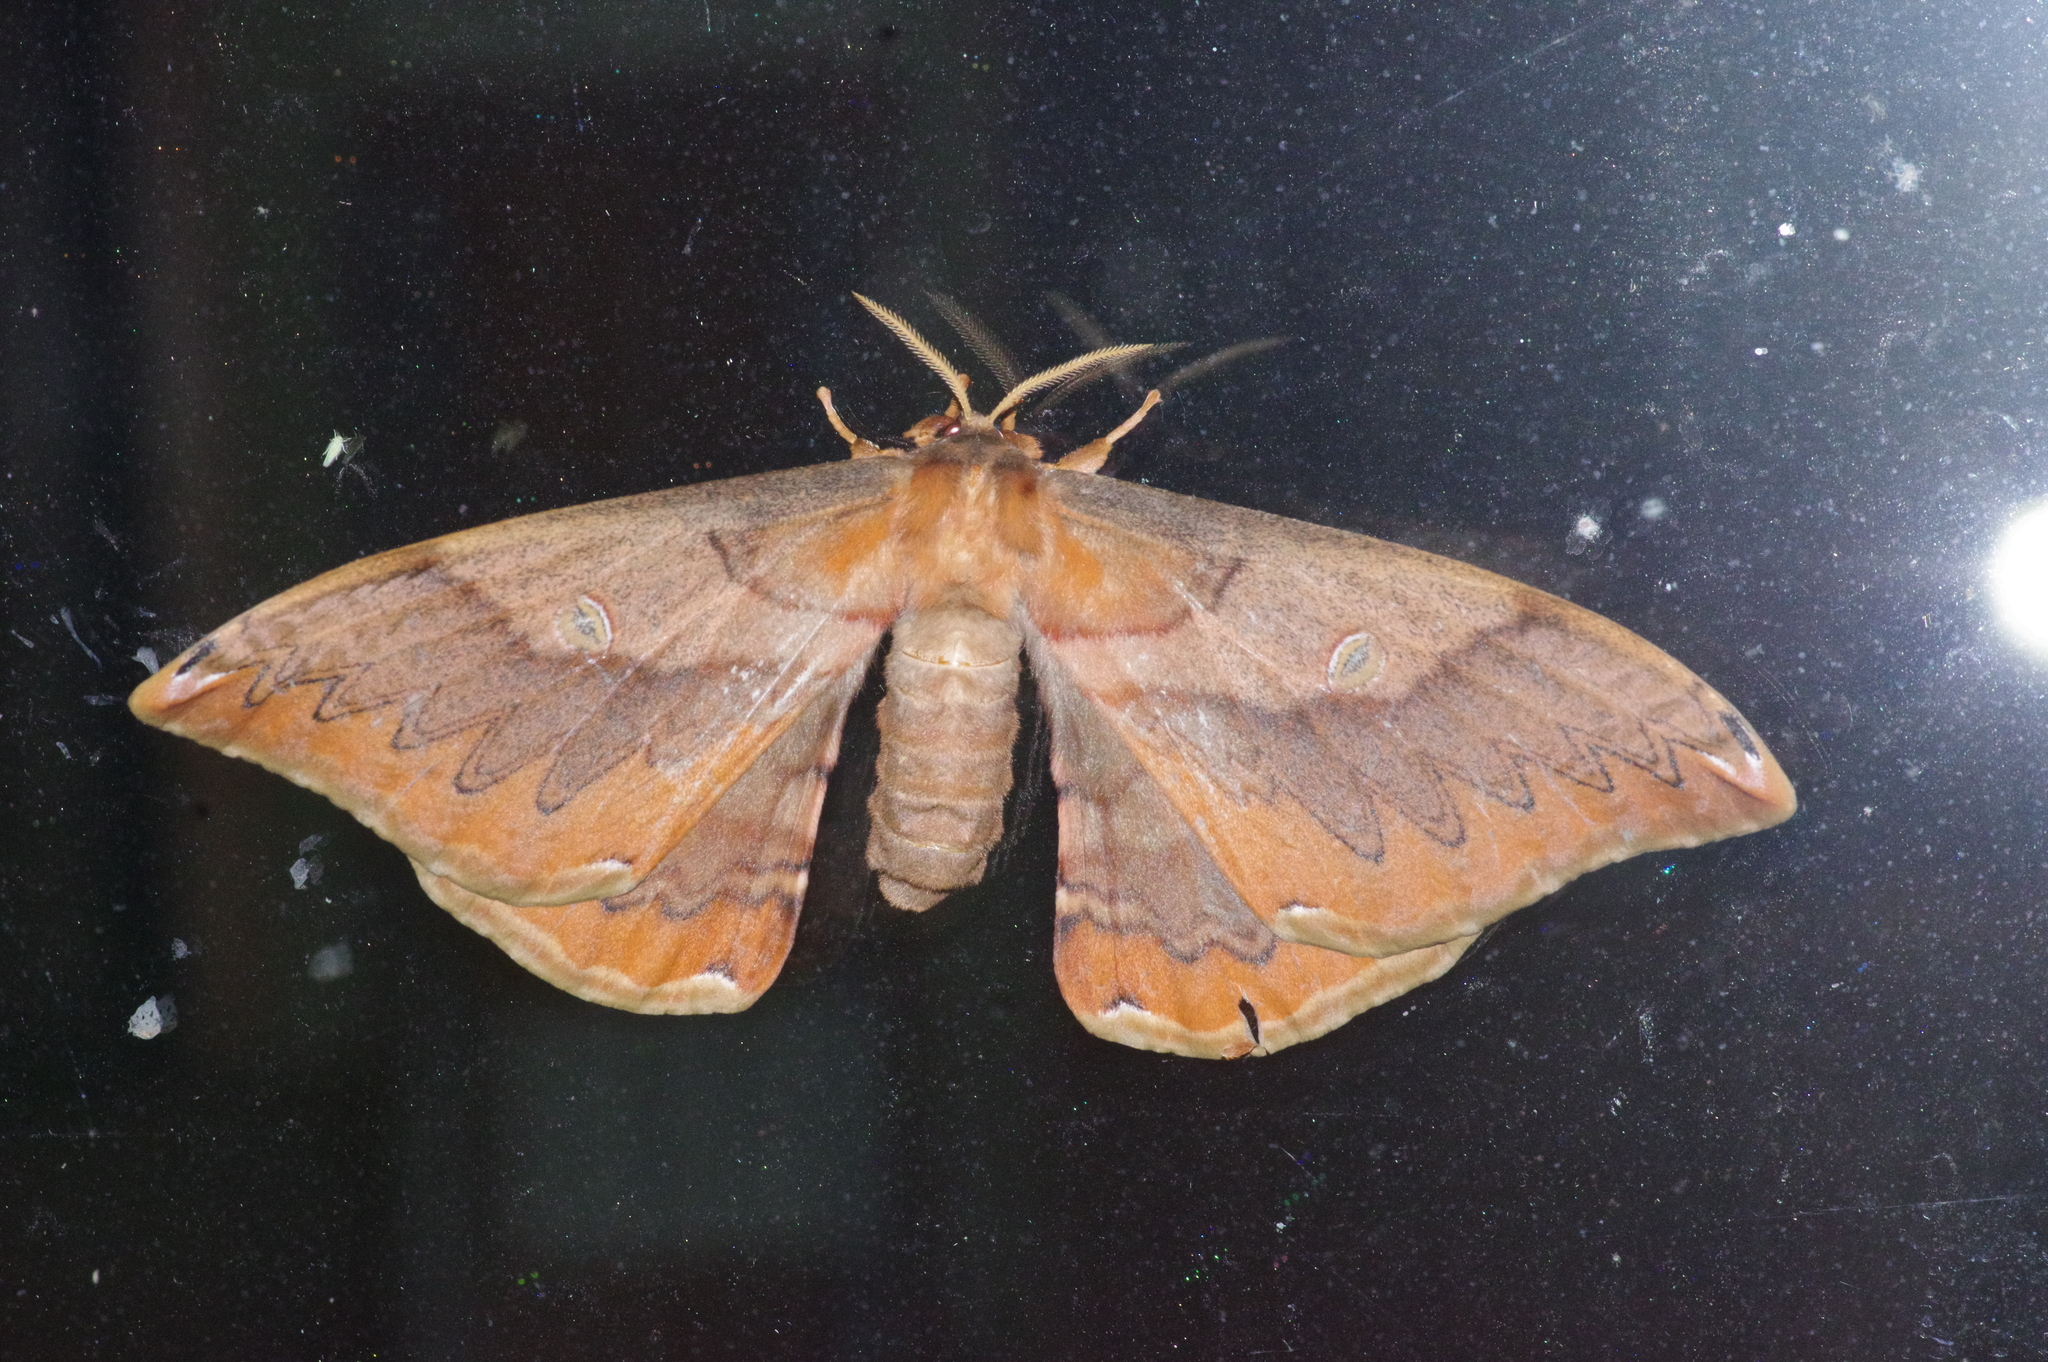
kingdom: Animalia
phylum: Arthropoda
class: Insecta
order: Lepidoptera
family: Saturniidae
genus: Saturnia
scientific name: Saturnia japonica
